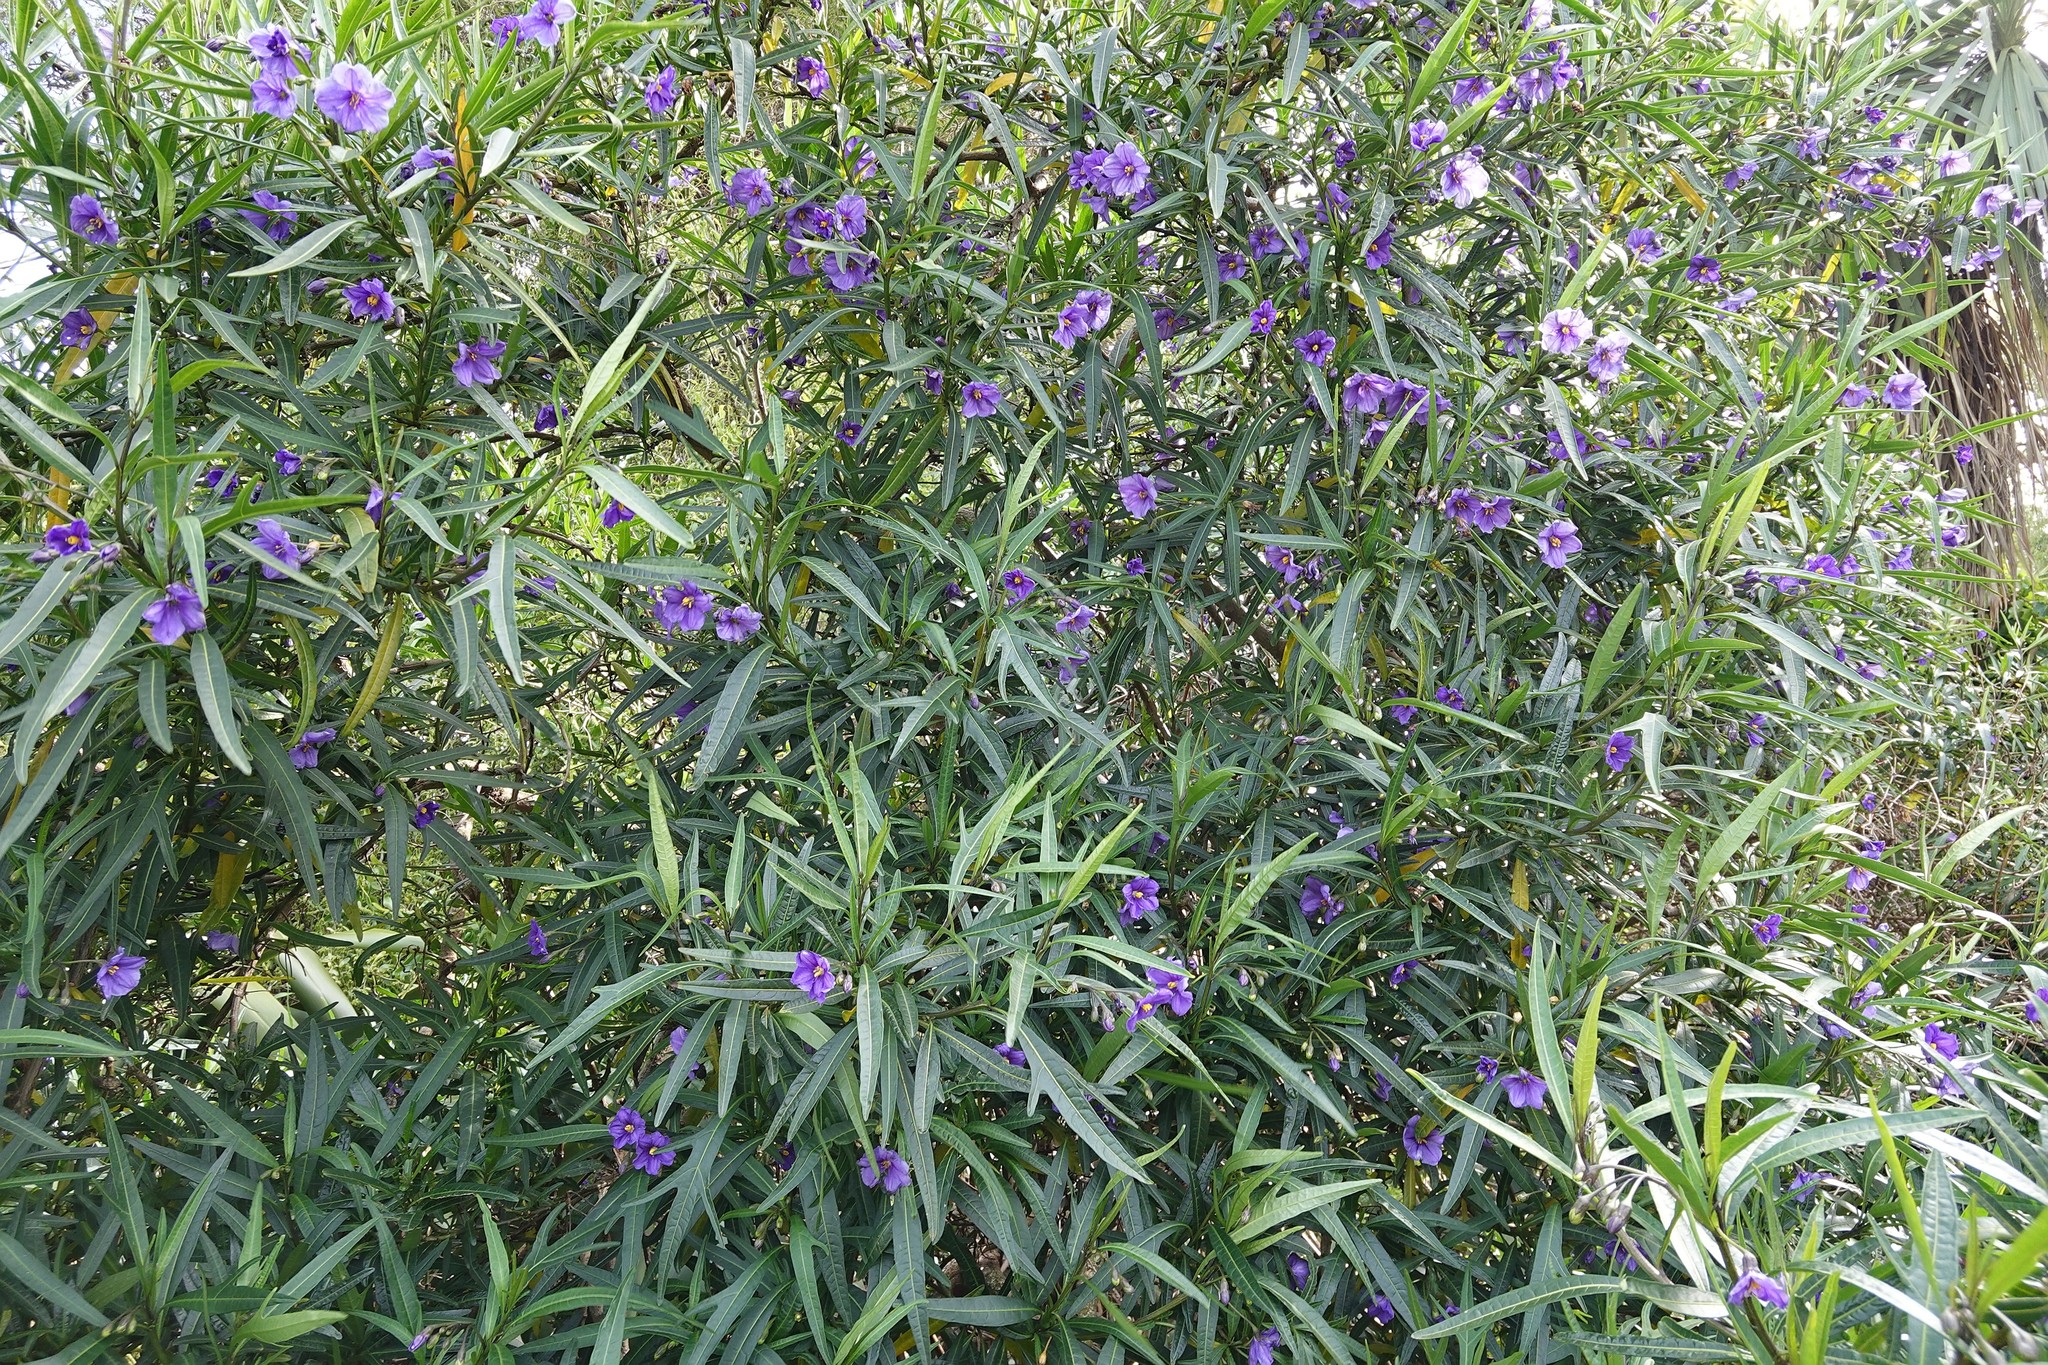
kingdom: Plantae
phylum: Tracheophyta
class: Magnoliopsida
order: Solanales
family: Solanaceae
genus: Solanum
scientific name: Solanum laciniatum
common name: Kangaroo-apple
